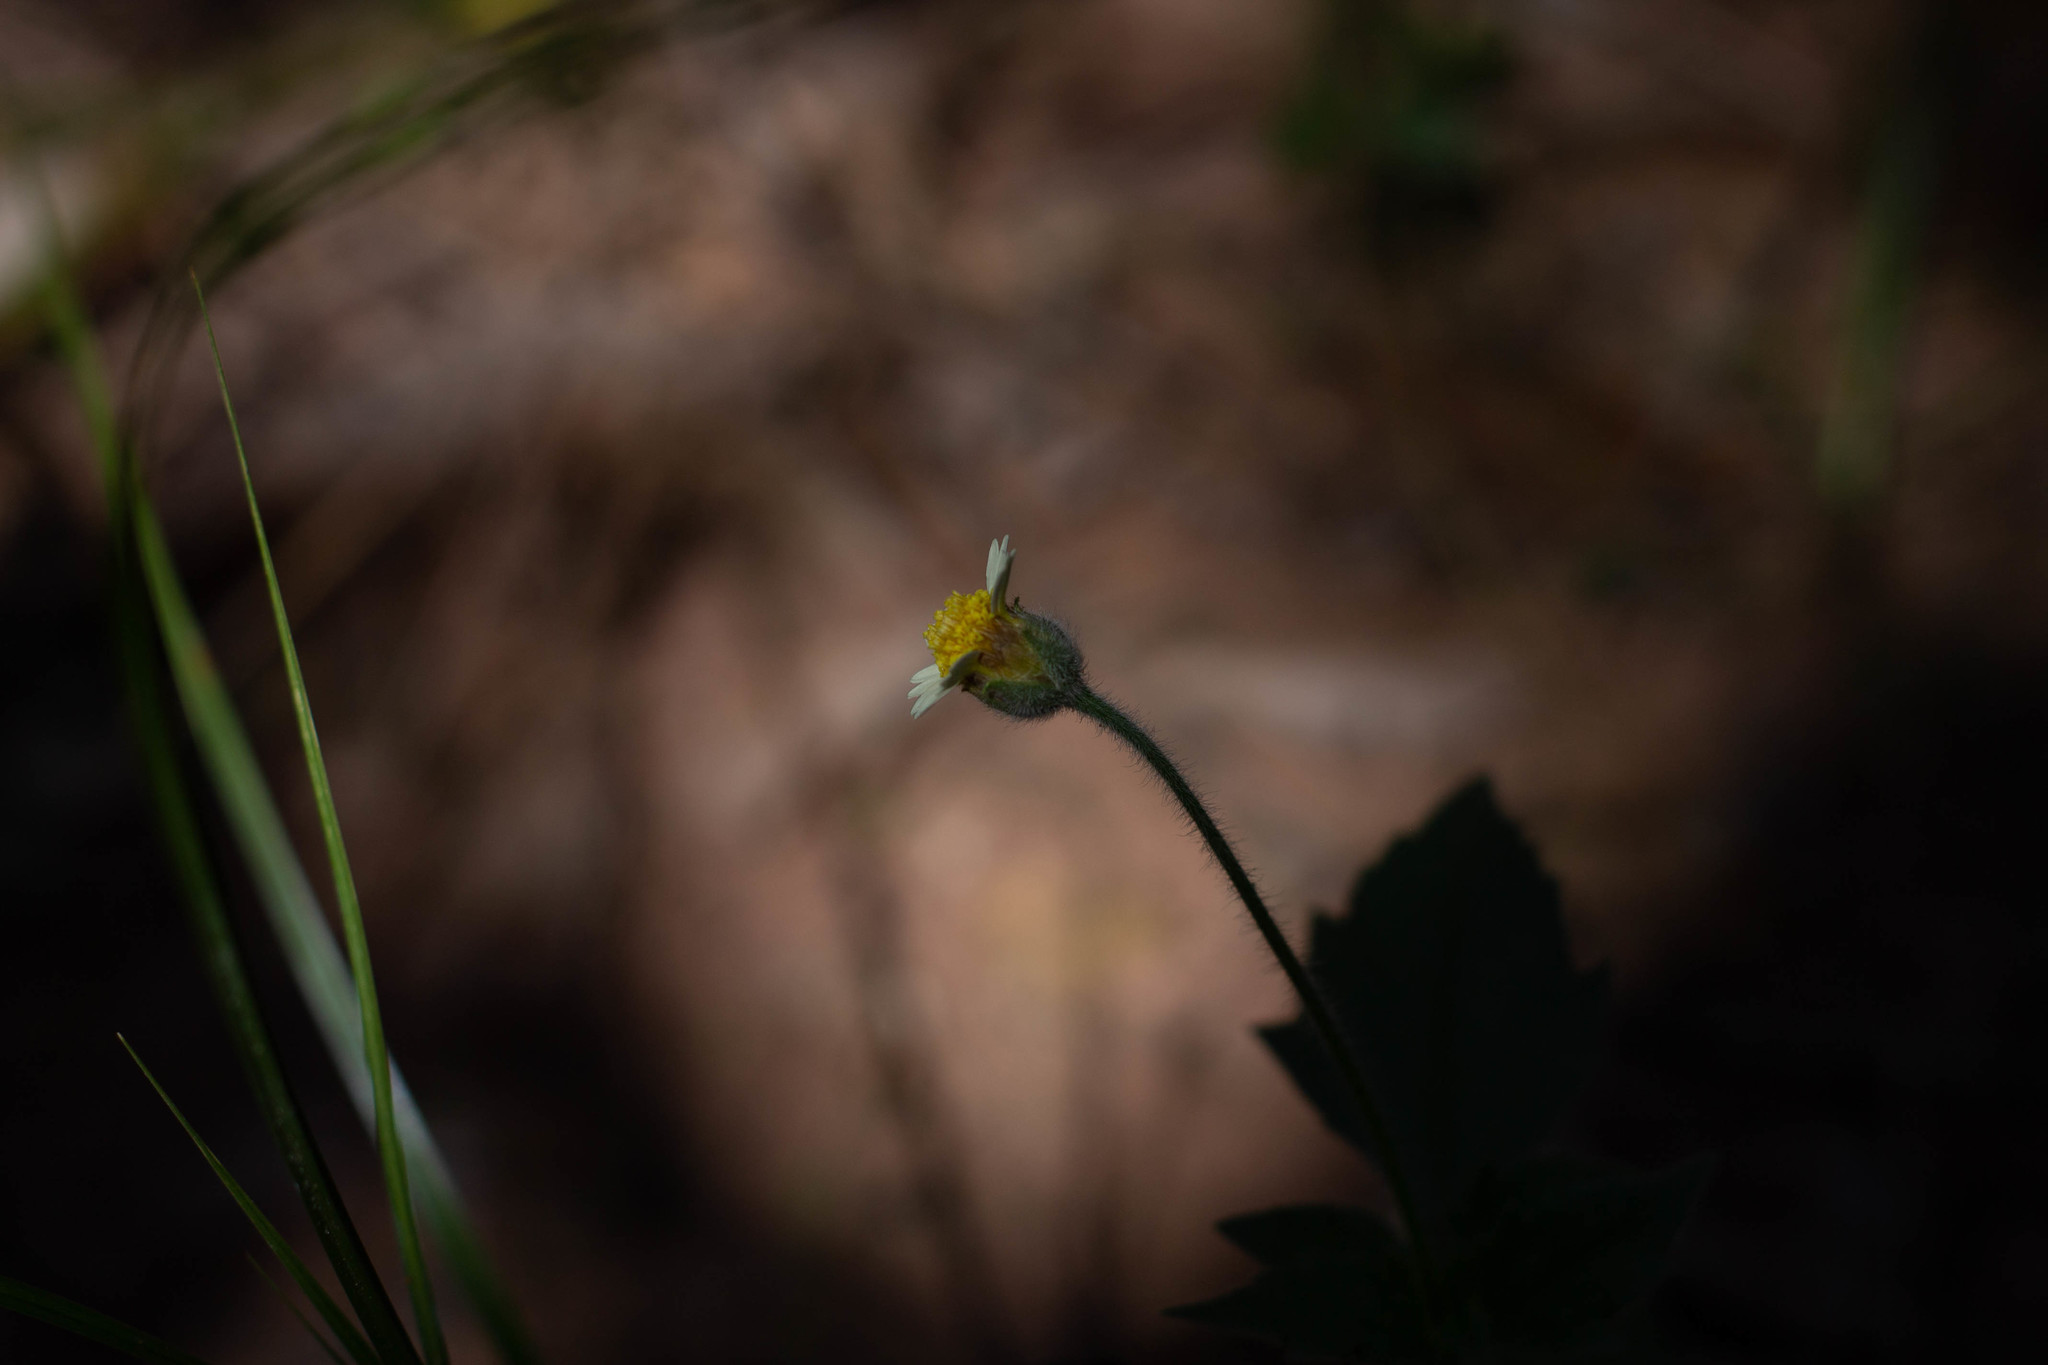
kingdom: Plantae
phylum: Tracheophyta
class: Magnoliopsida
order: Asterales
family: Asteraceae
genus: Tridax
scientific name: Tridax procumbens
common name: Coatbuttons
